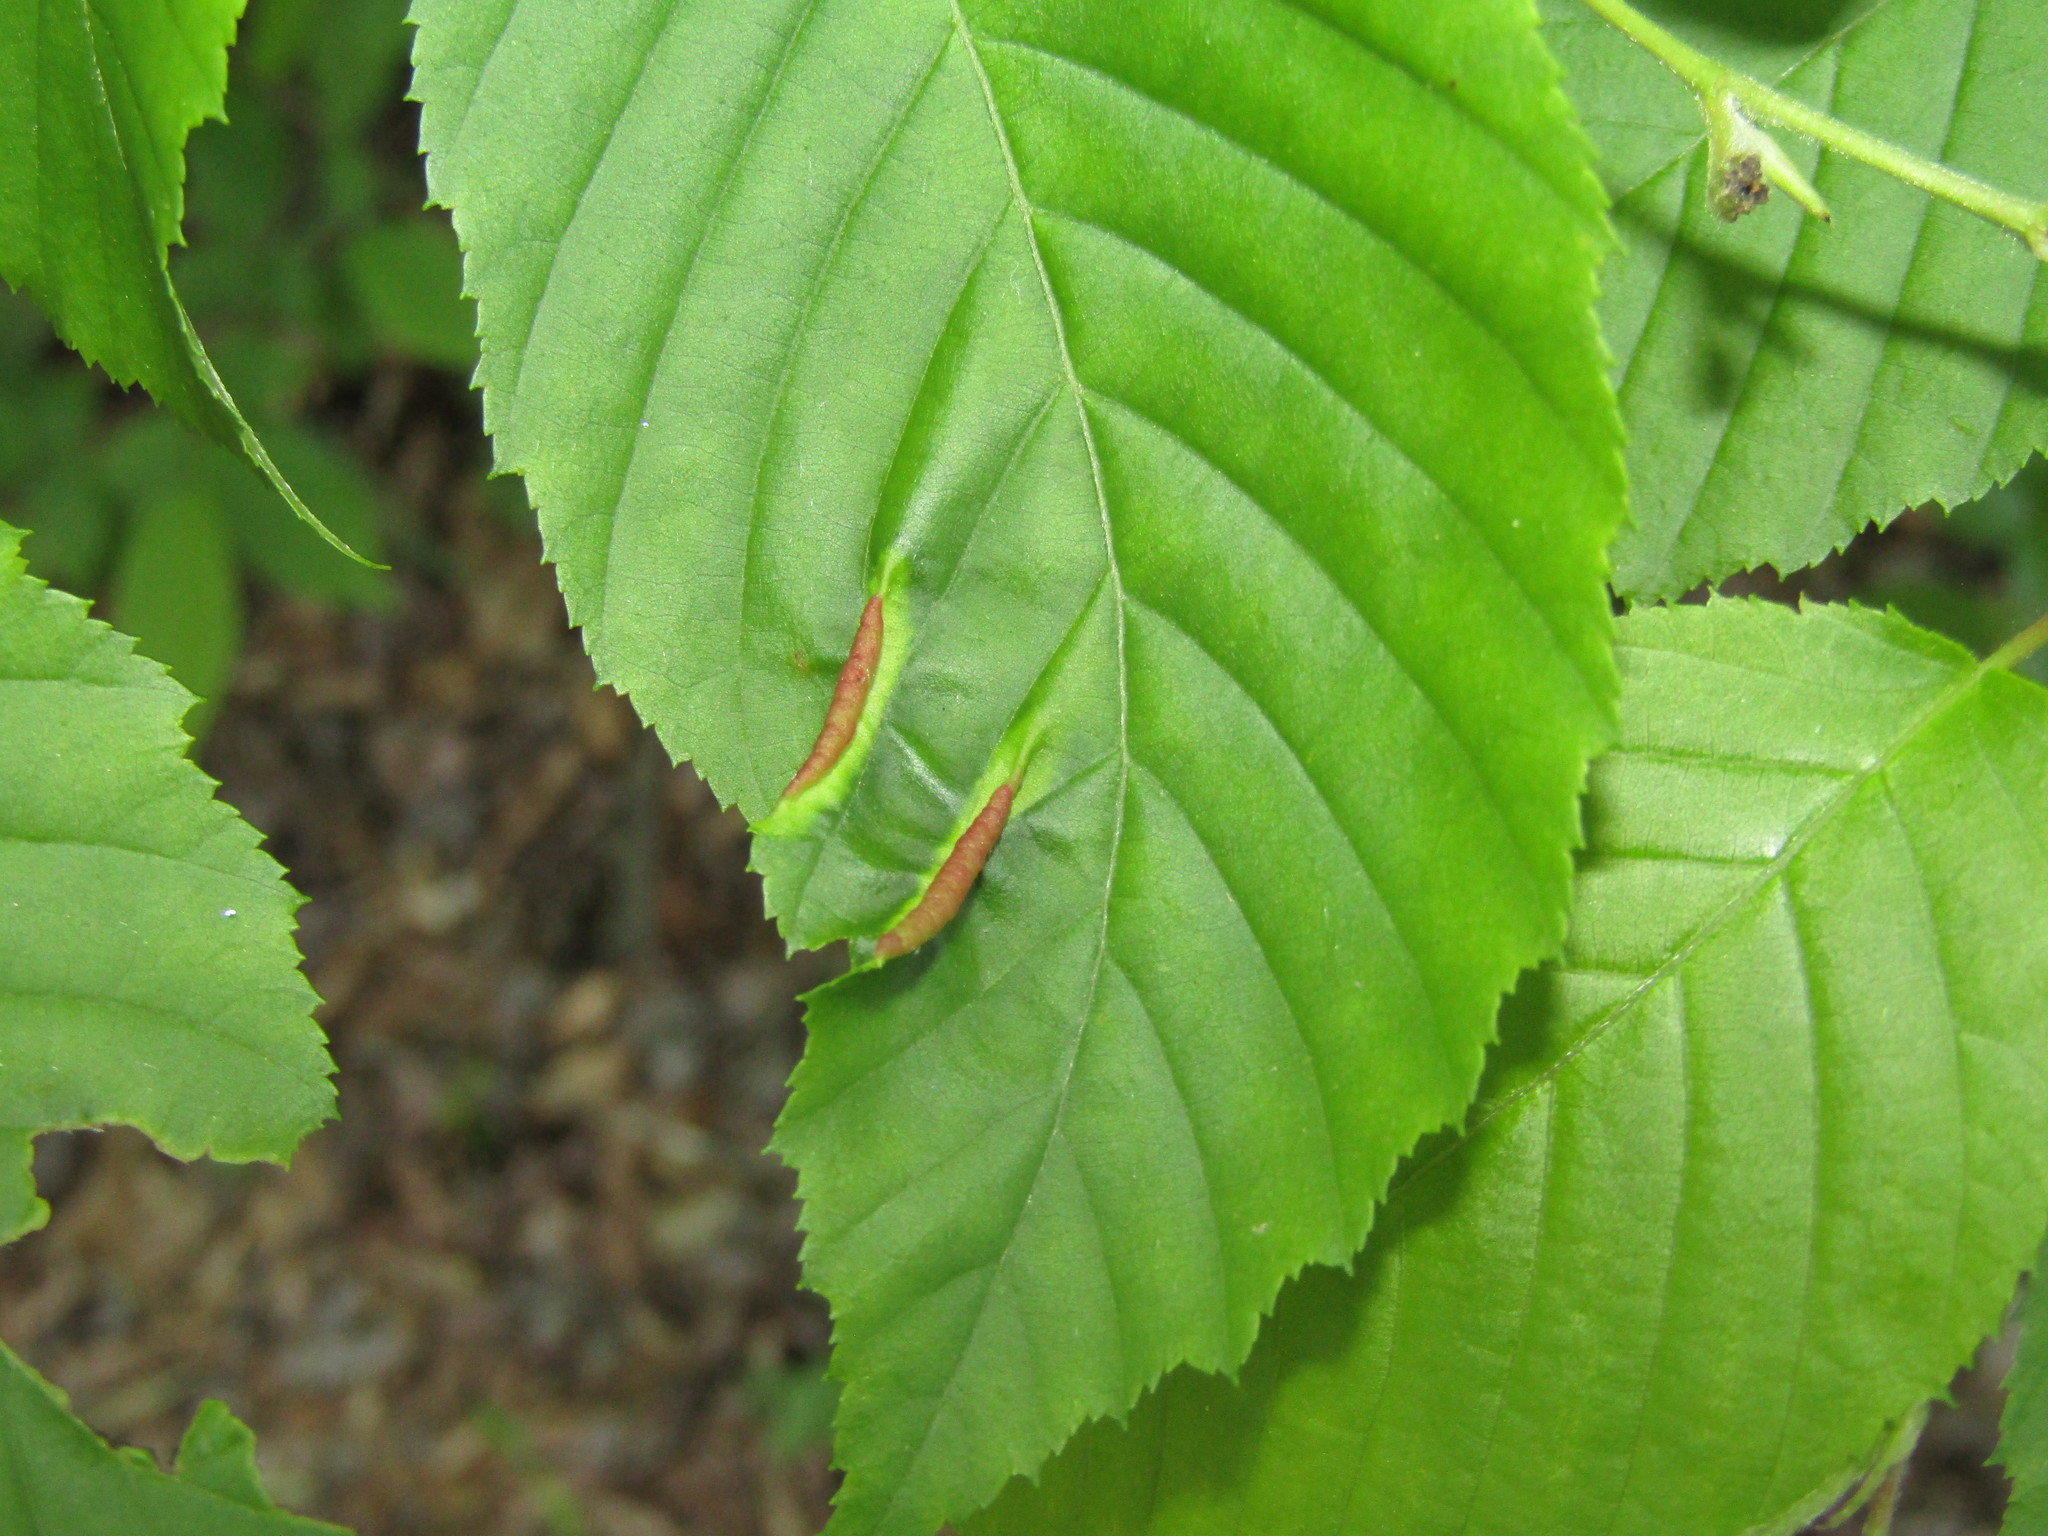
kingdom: Animalia
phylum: Arthropoda
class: Insecta
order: Diptera
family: Cecidomyiidae
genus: Dasineura
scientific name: Dasineura pudibunda
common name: Hornbeam leaf gall midge
